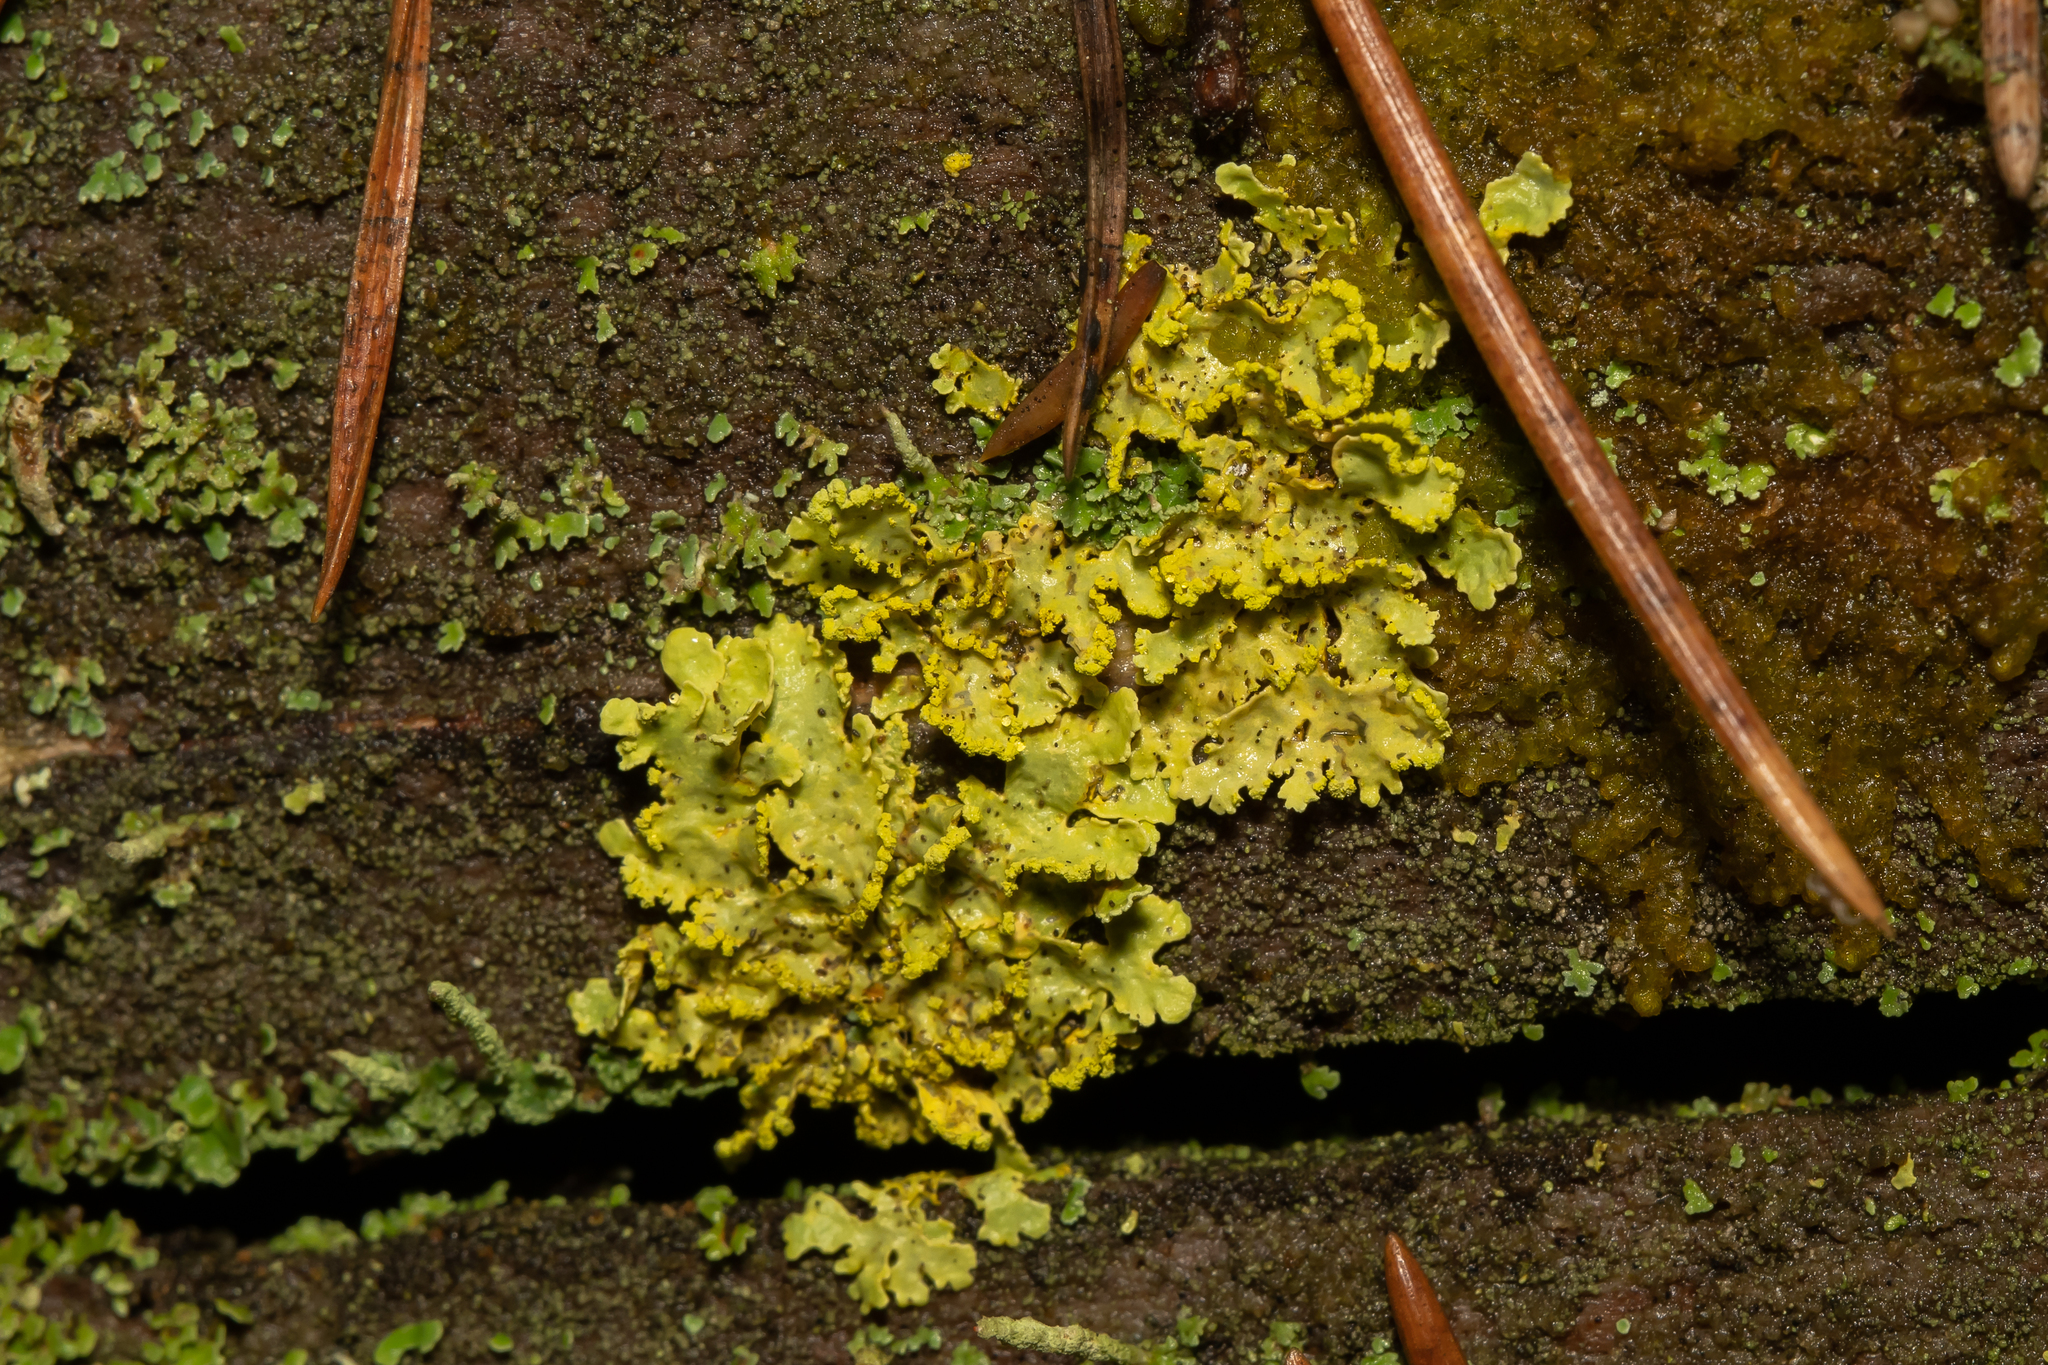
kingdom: Fungi
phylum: Ascomycota
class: Lecanoromycetes
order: Lecanorales
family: Parmeliaceae
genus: Vulpicida
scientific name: Vulpicida pinastri
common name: Powdered sunshine lichen
